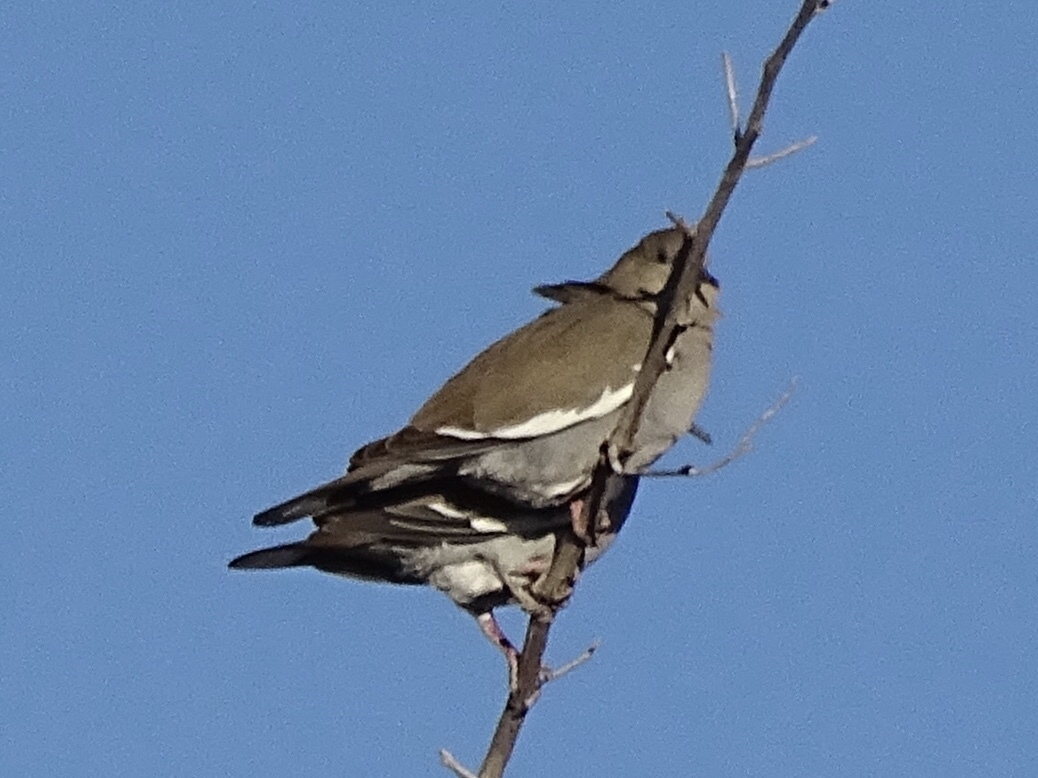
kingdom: Animalia
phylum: Chordata
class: Aves
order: Columbiformes
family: Columbidae
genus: Zenaida
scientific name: Zenaida asiatica
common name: White-winged dove
